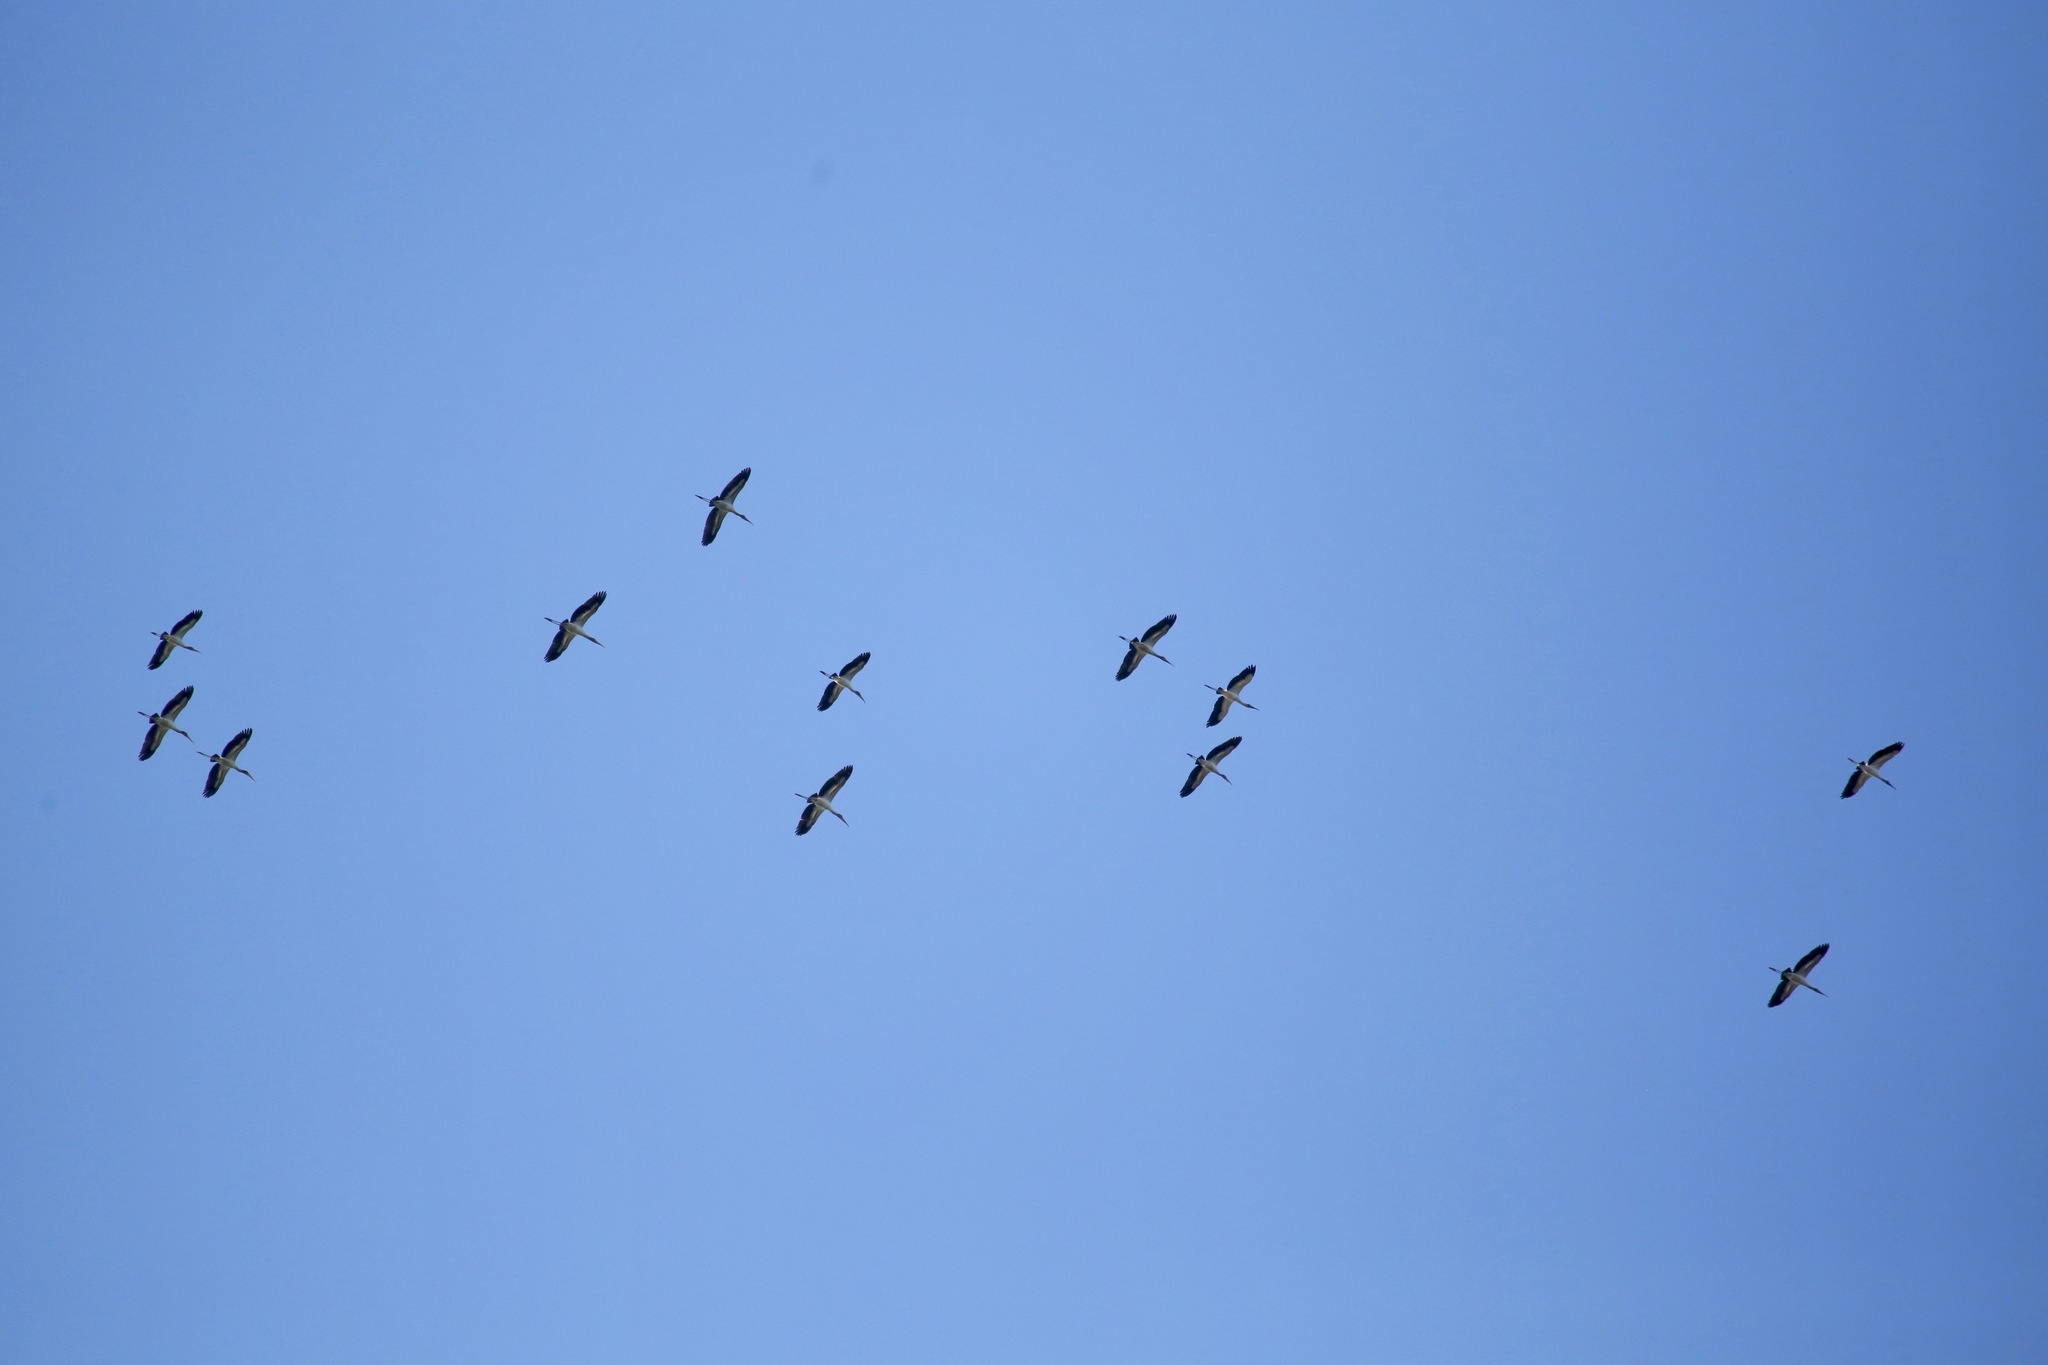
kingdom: Animalia
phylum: Chordata
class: Aves
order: Ciconiiformes
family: Ciconiidae
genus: Mycteria
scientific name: Mycteria americana
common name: Wood stork
